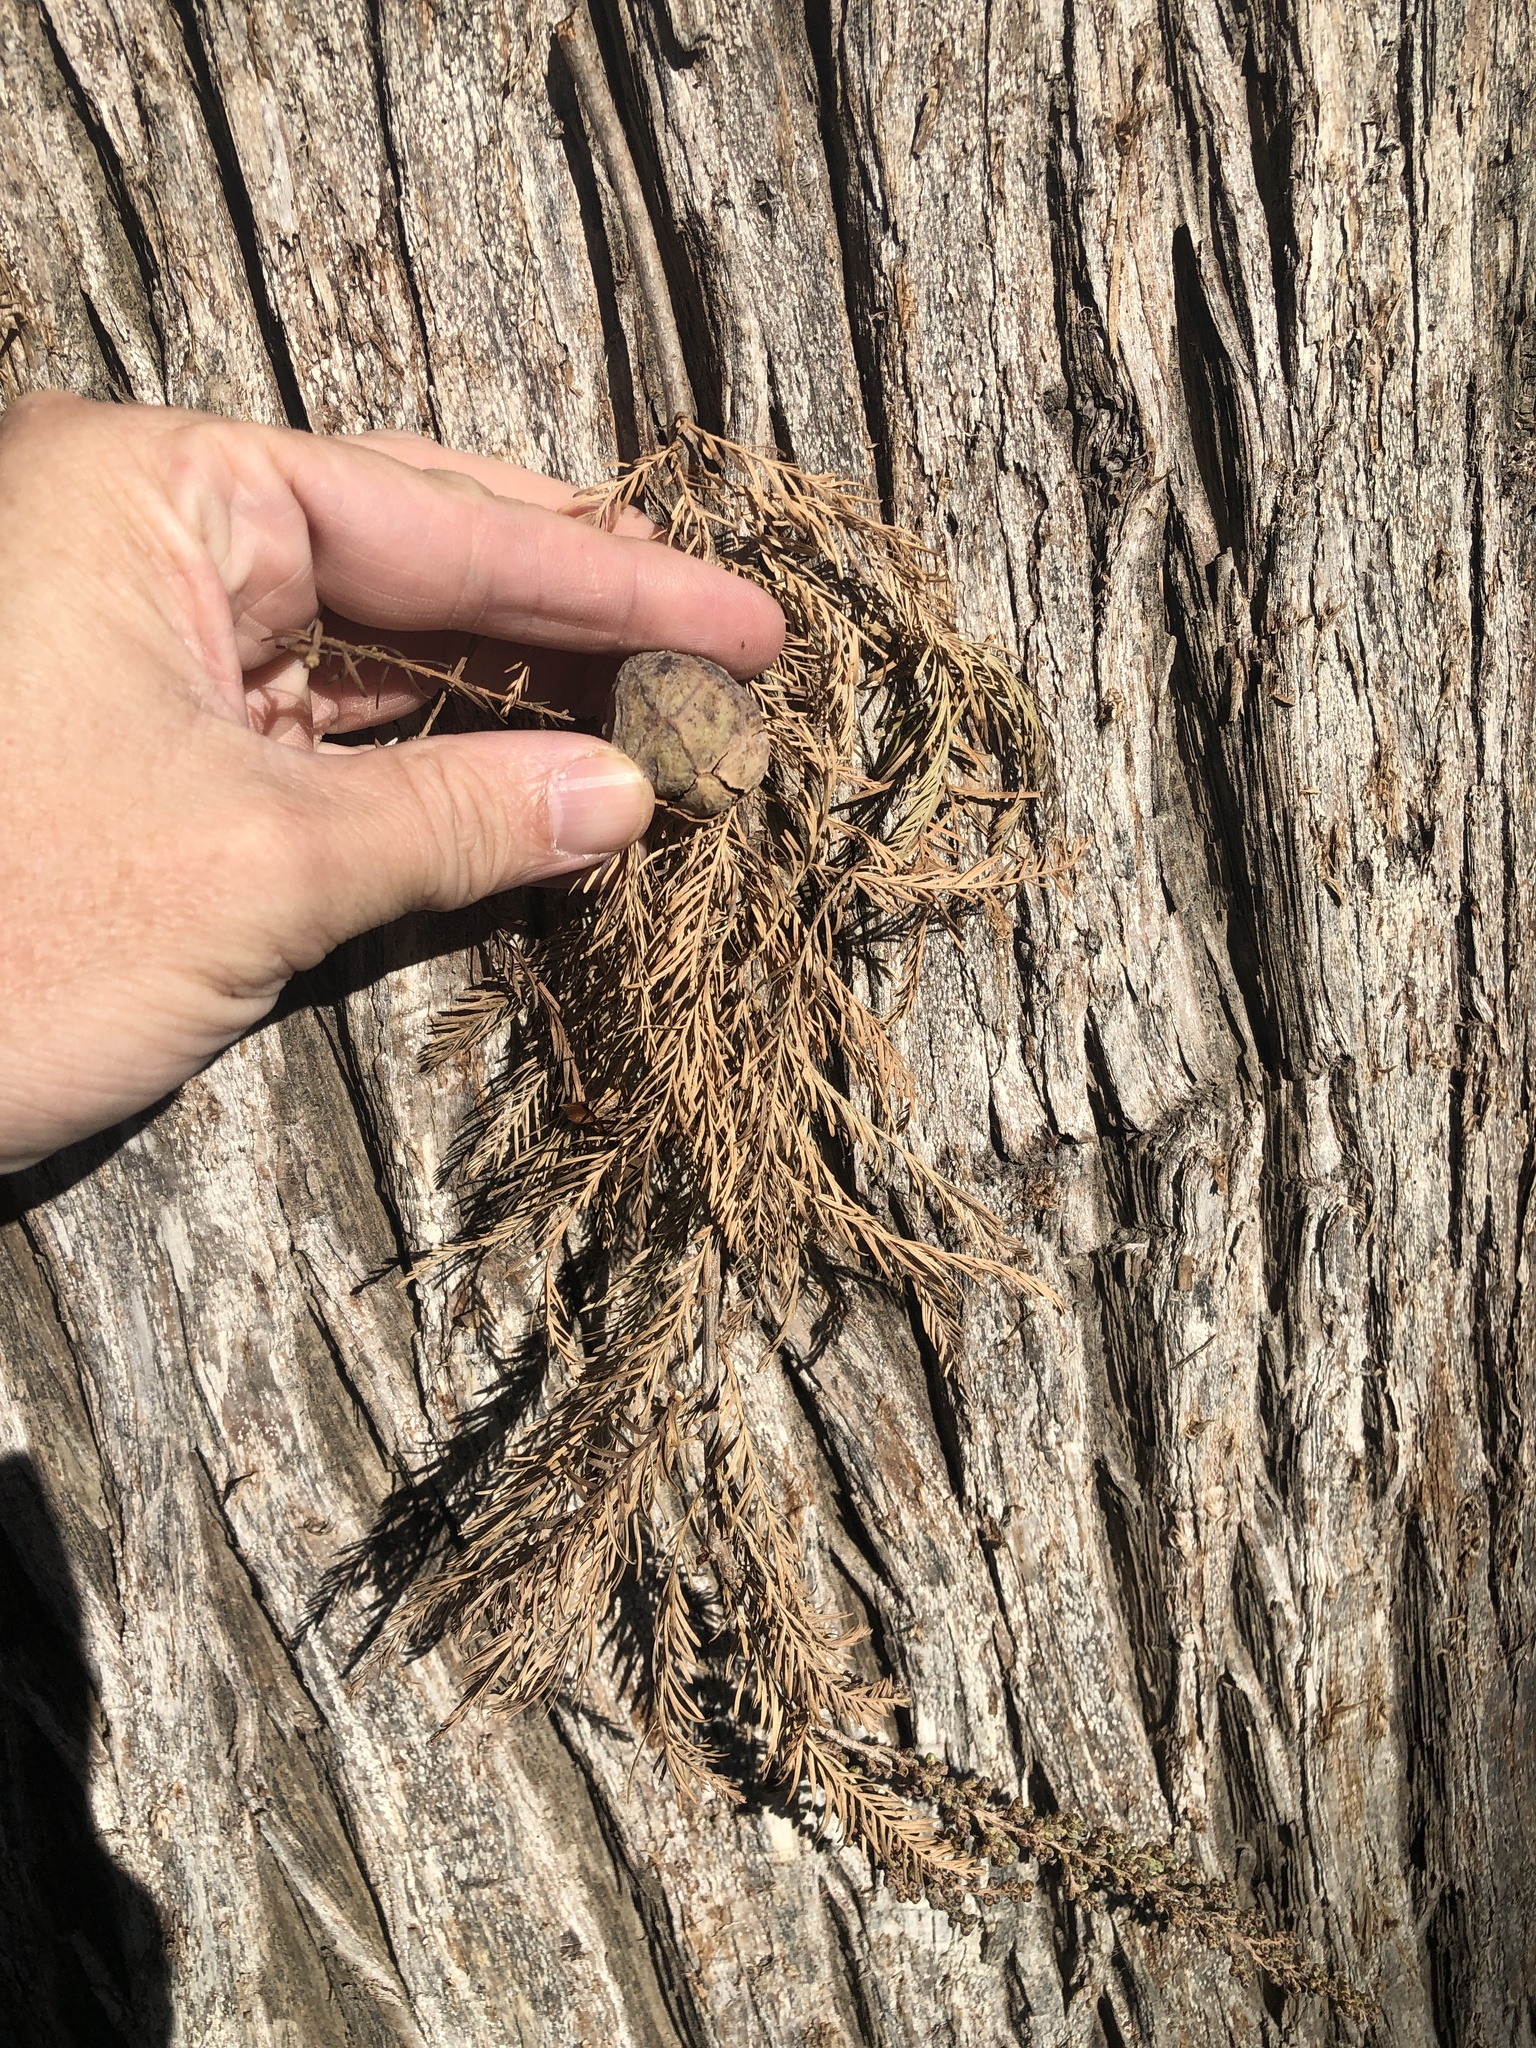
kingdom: Plantae
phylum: Tracheophyta
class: Pinopsida
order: Pinales
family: Cupressaceae
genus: Taxodium
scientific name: Taxodium distichum
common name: Bald cypress
